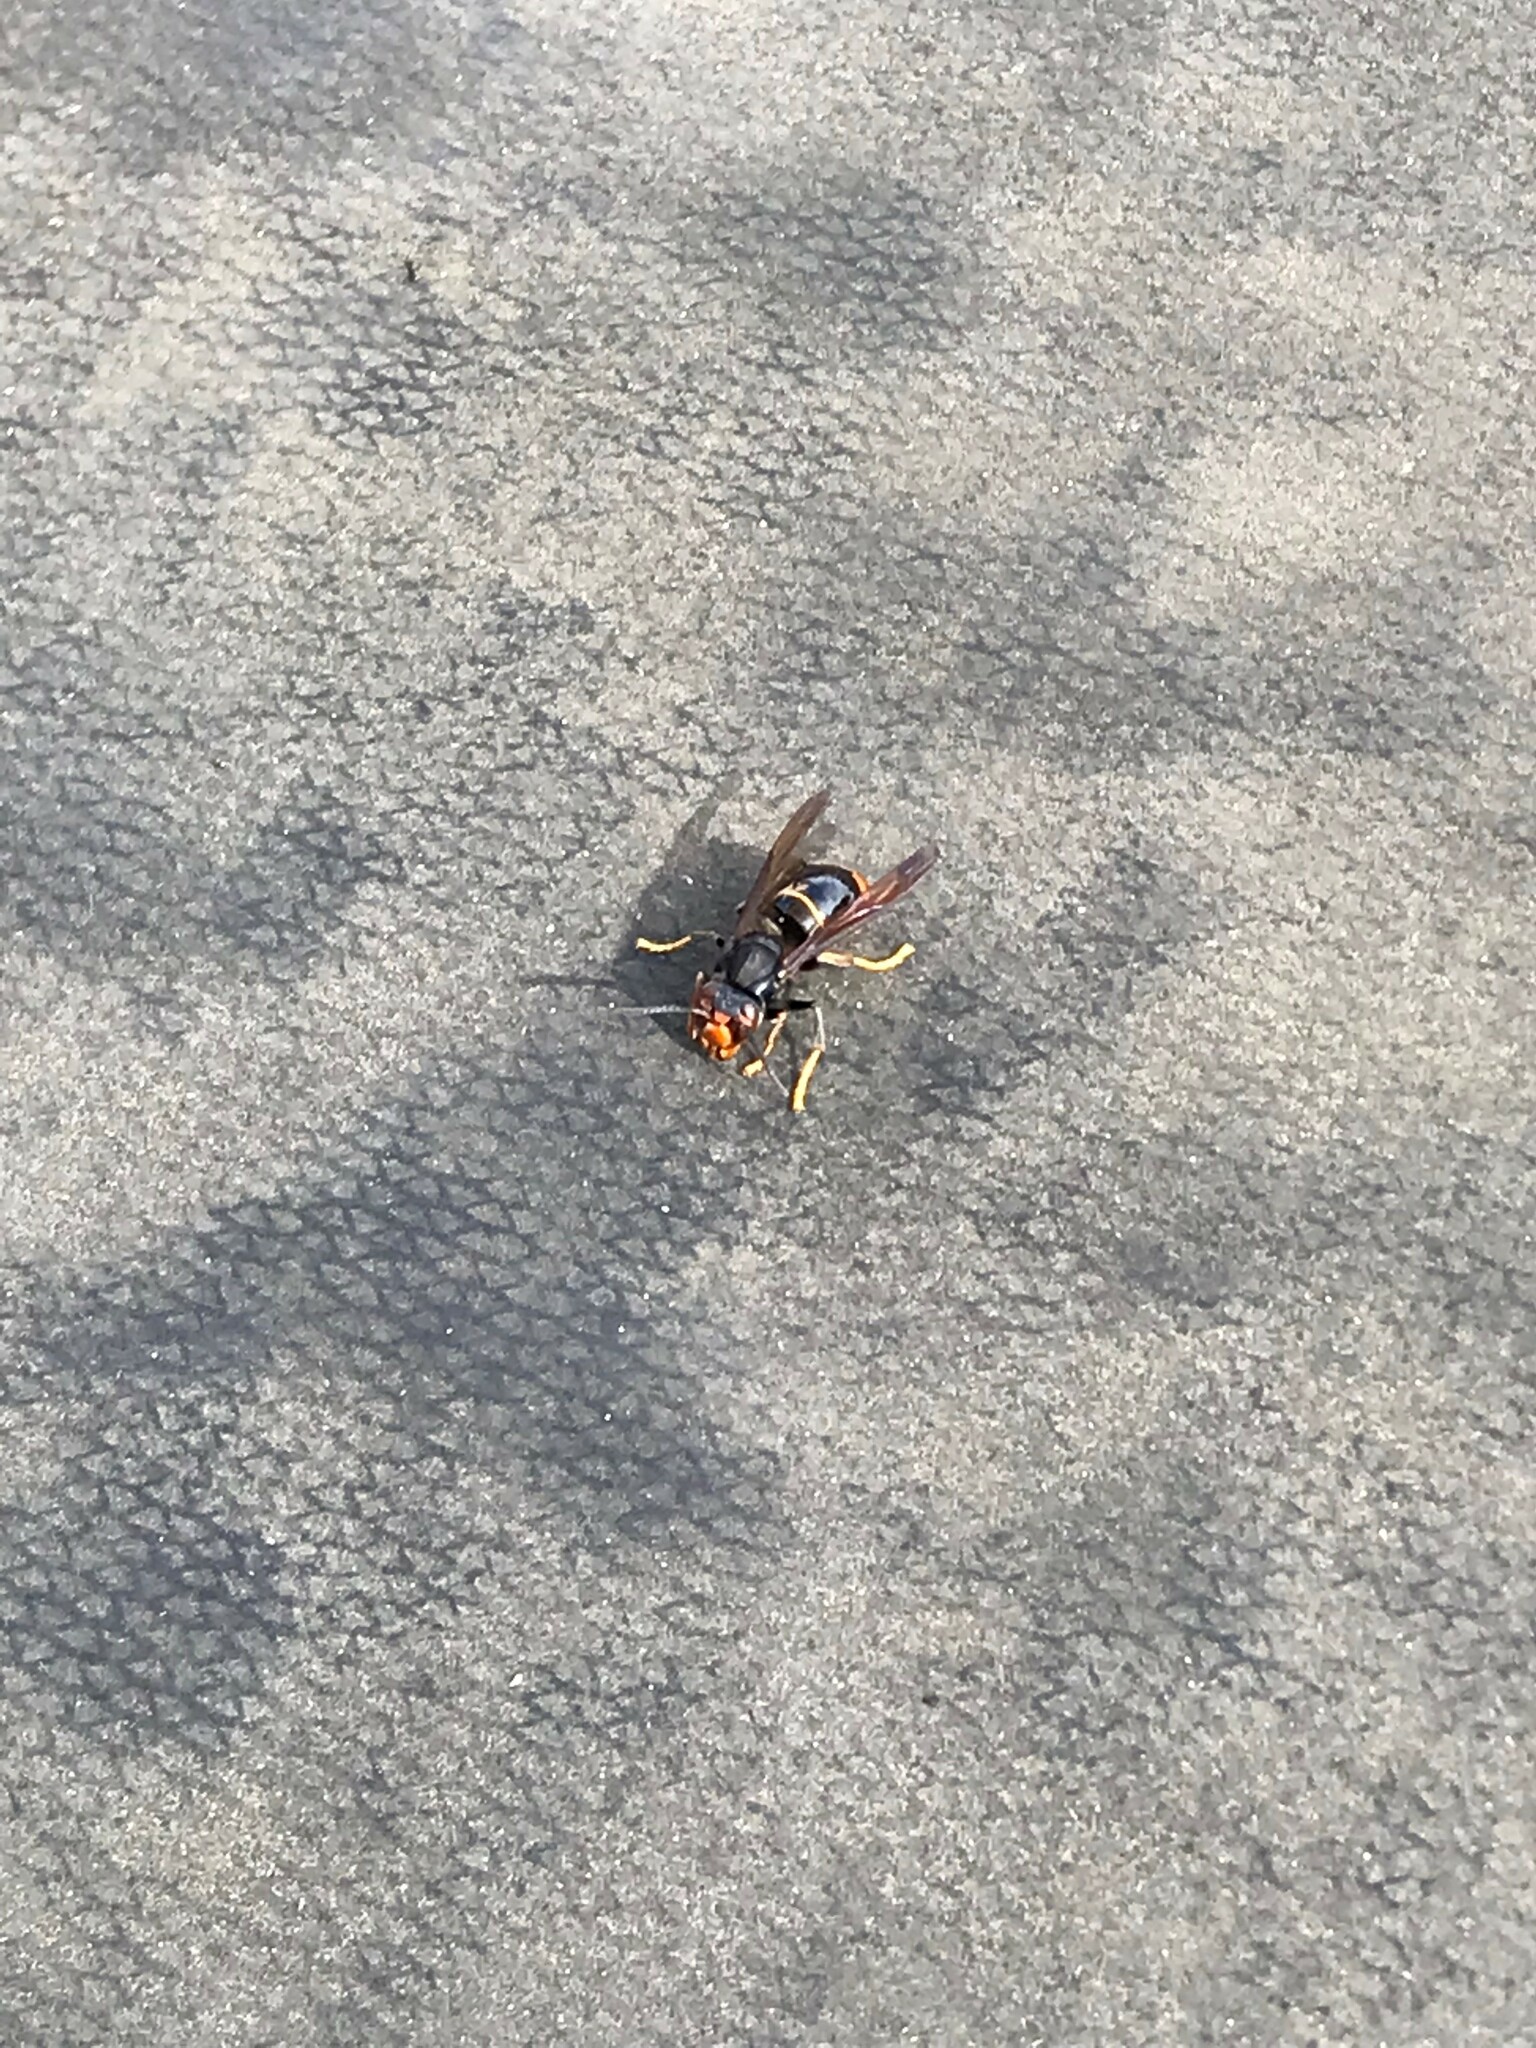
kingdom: Animalia
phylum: Arthropoda
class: Insecta
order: Hymenoptera
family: Vespidae
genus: Vespa
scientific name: Vespa velutina
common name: Asian hornet
